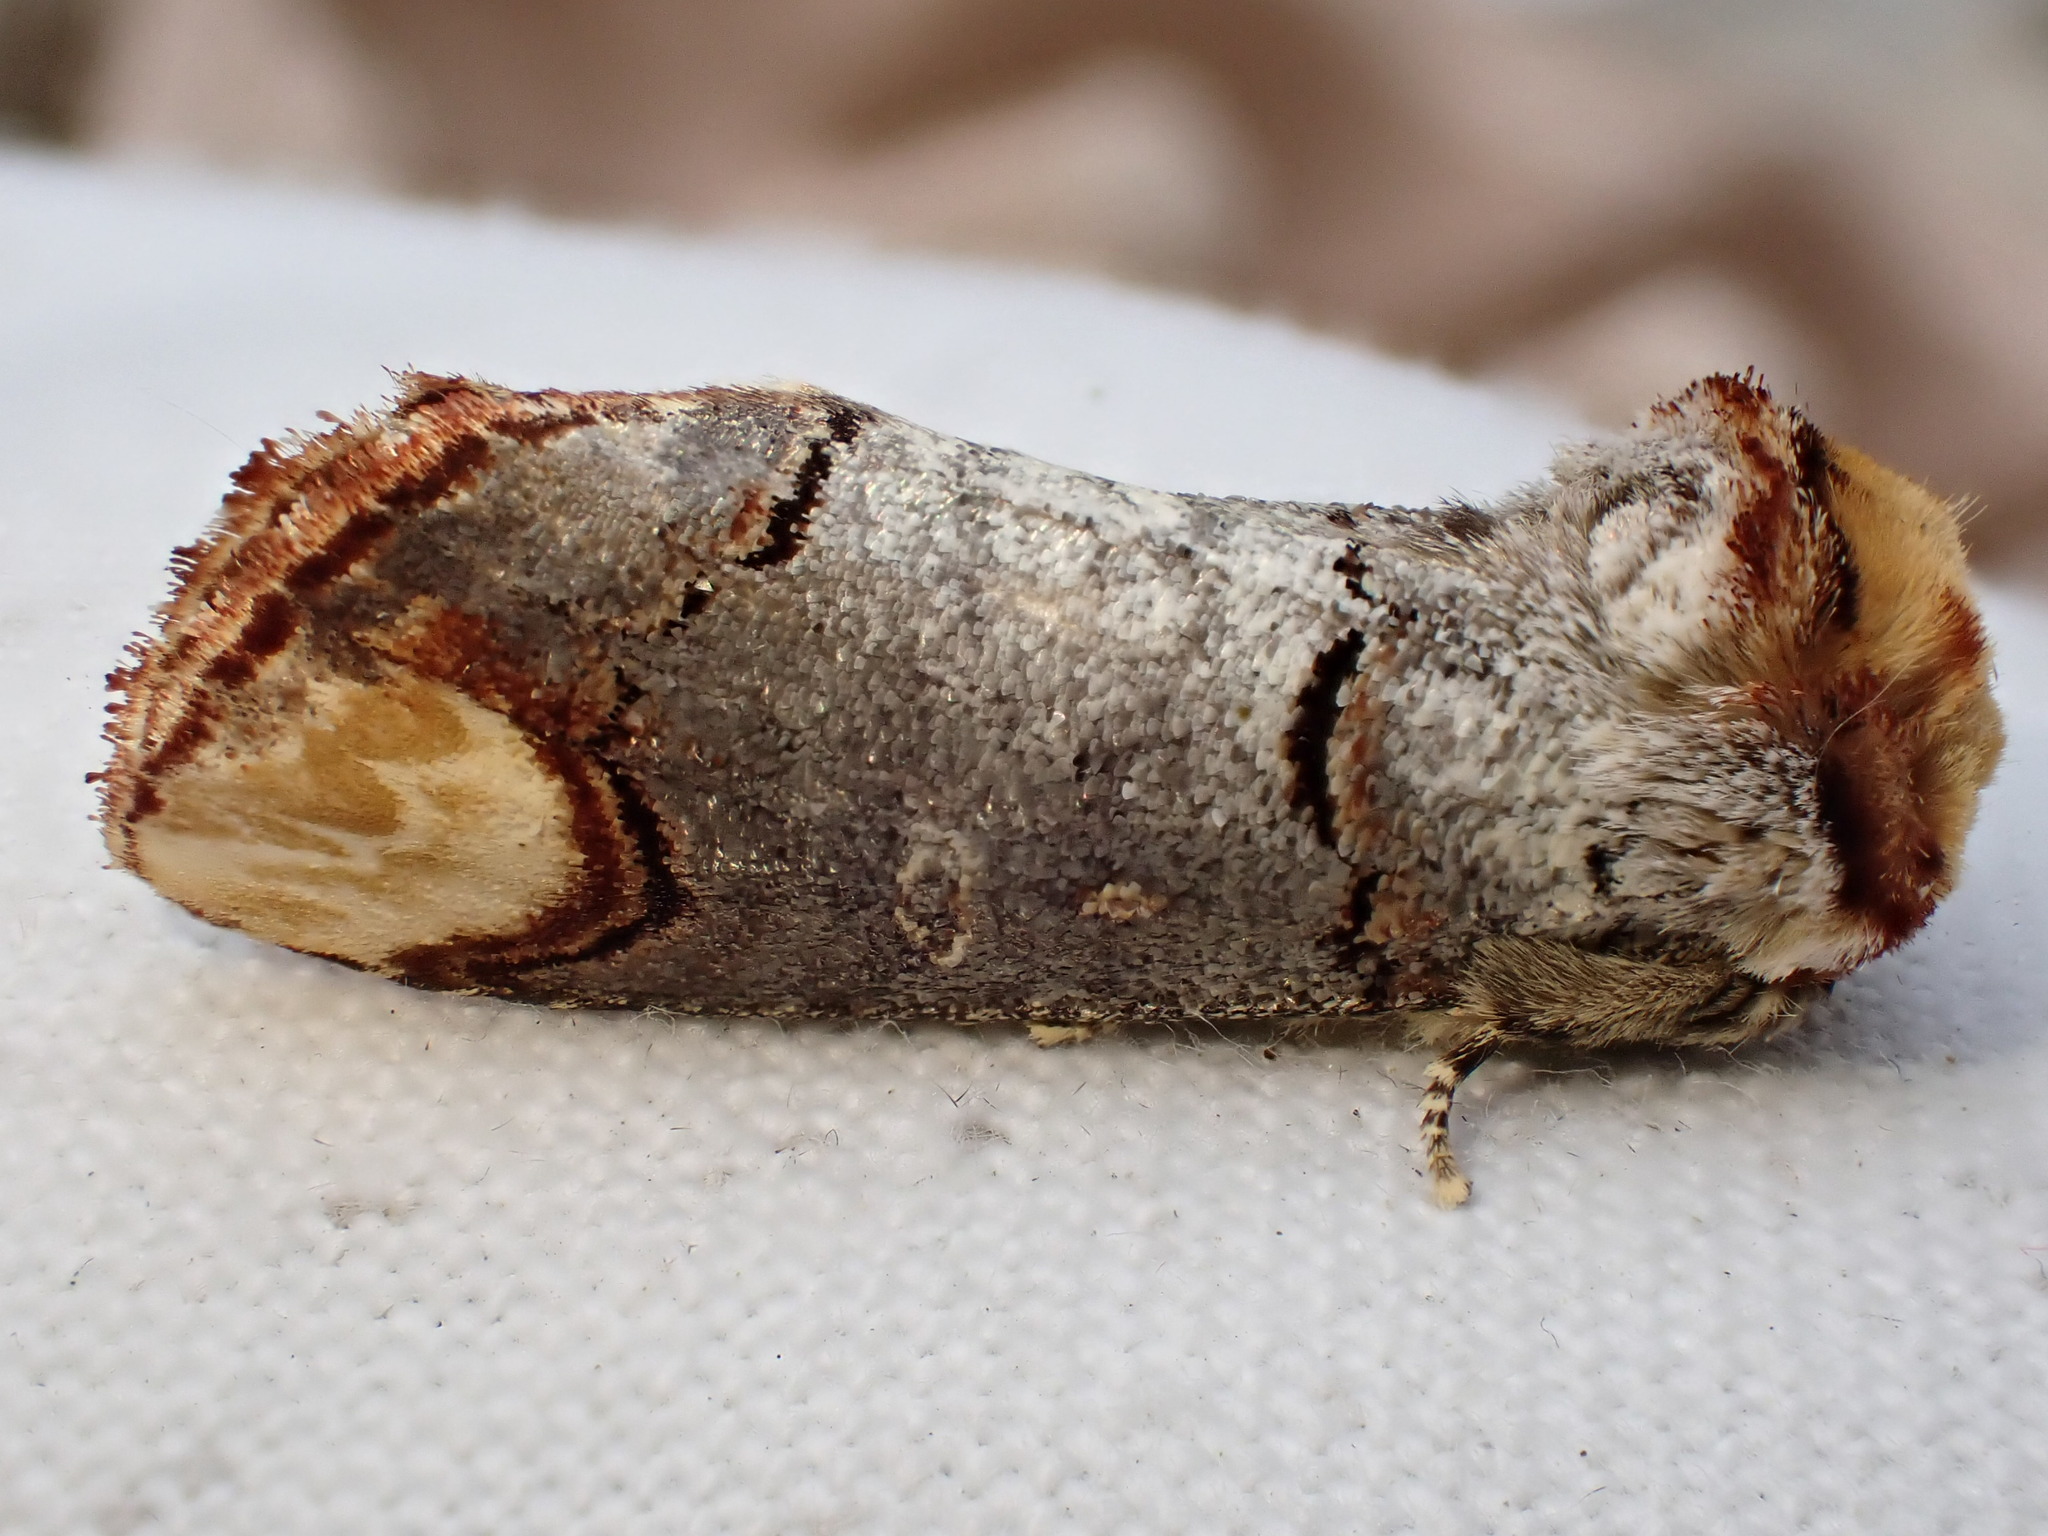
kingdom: Animalia
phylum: Arthropoda
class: Insecta
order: Lepidoptera
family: Notodontidae
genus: Phalera
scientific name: Phalera bucephala
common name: Buff-tip
